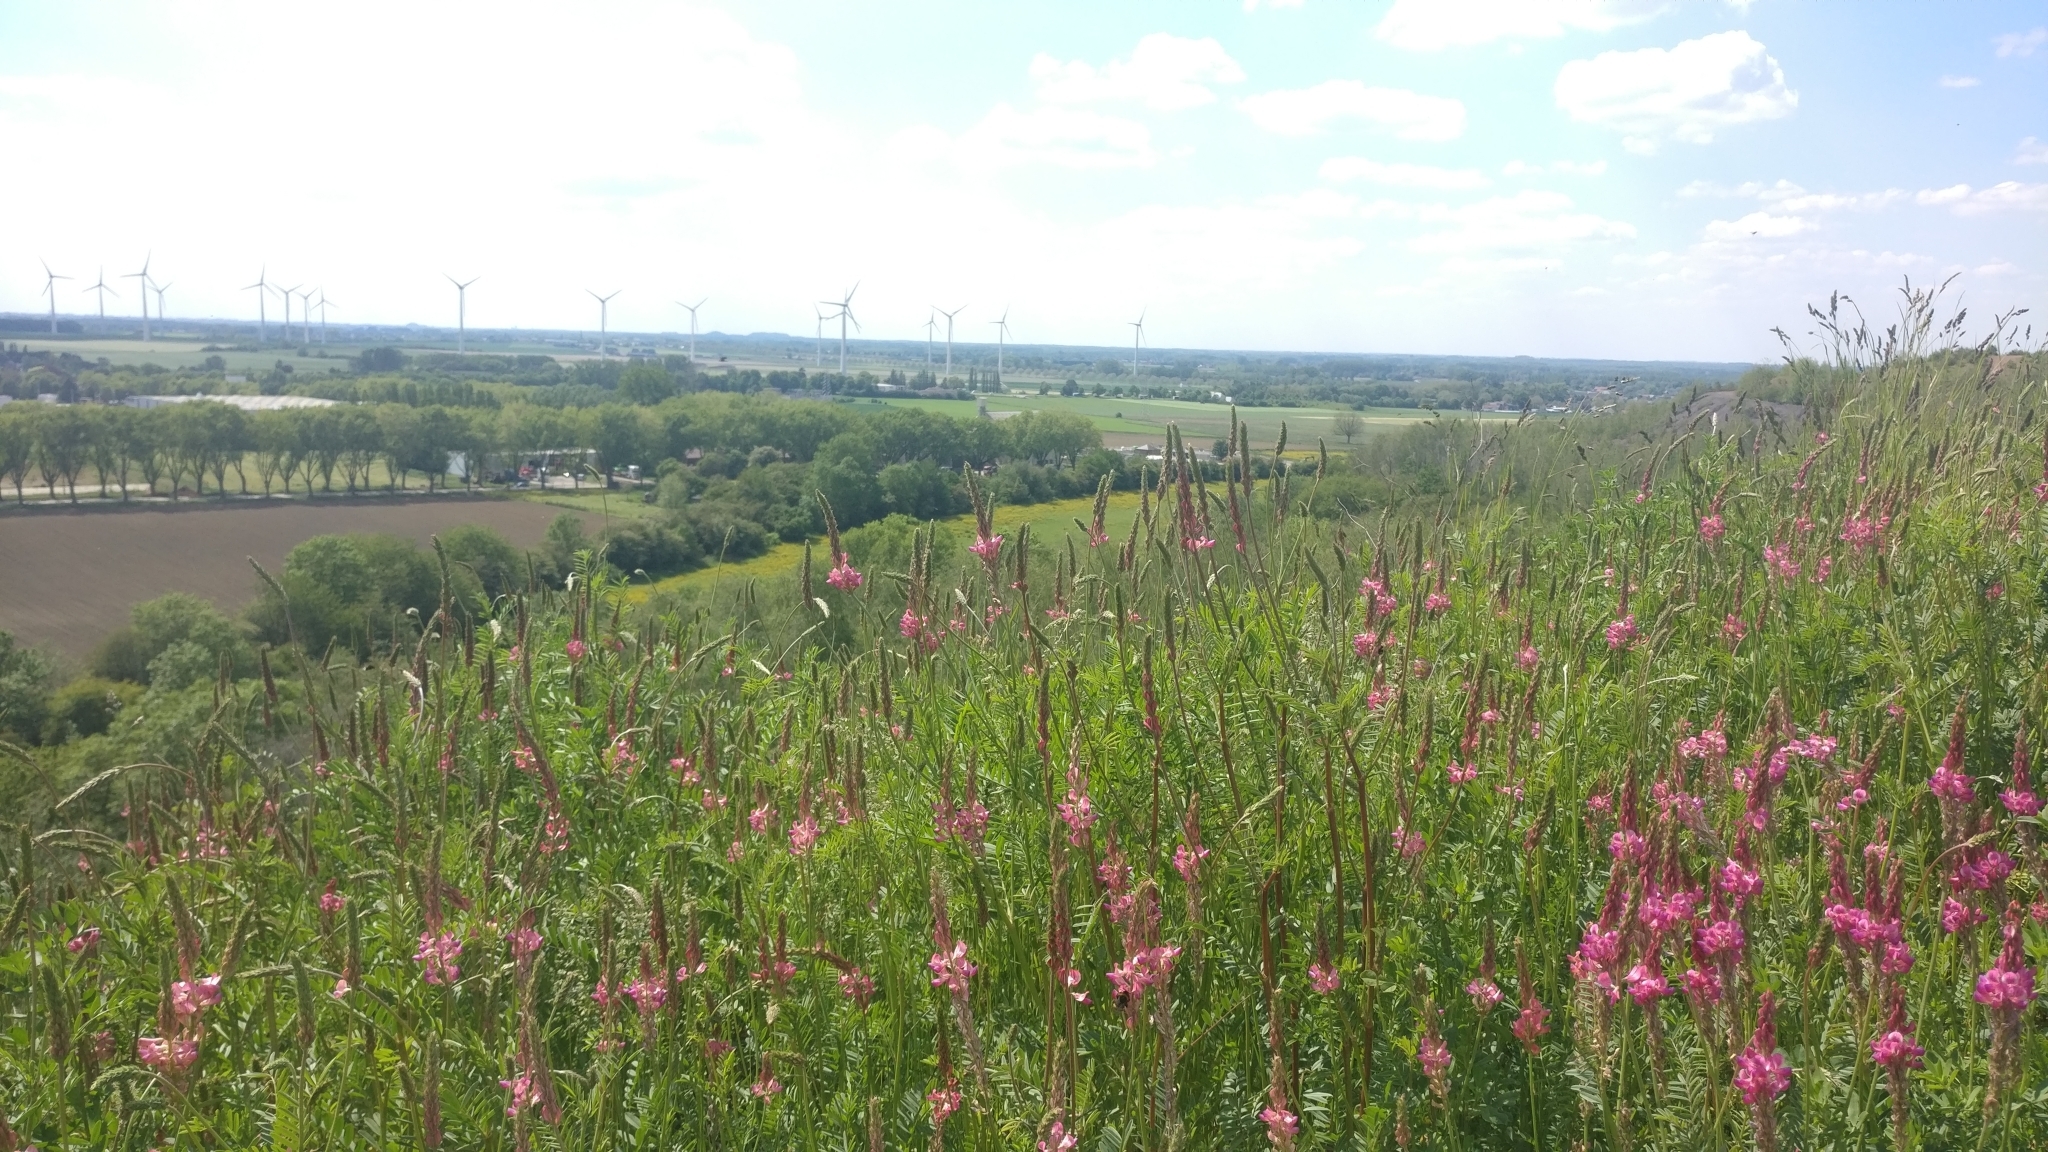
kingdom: Plantae
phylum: Tracheophyta
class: Magnoliopsida
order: Fabales
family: Fabaceae
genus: Onobrychis
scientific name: Onobrychis viciifolia
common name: Sainfoin
